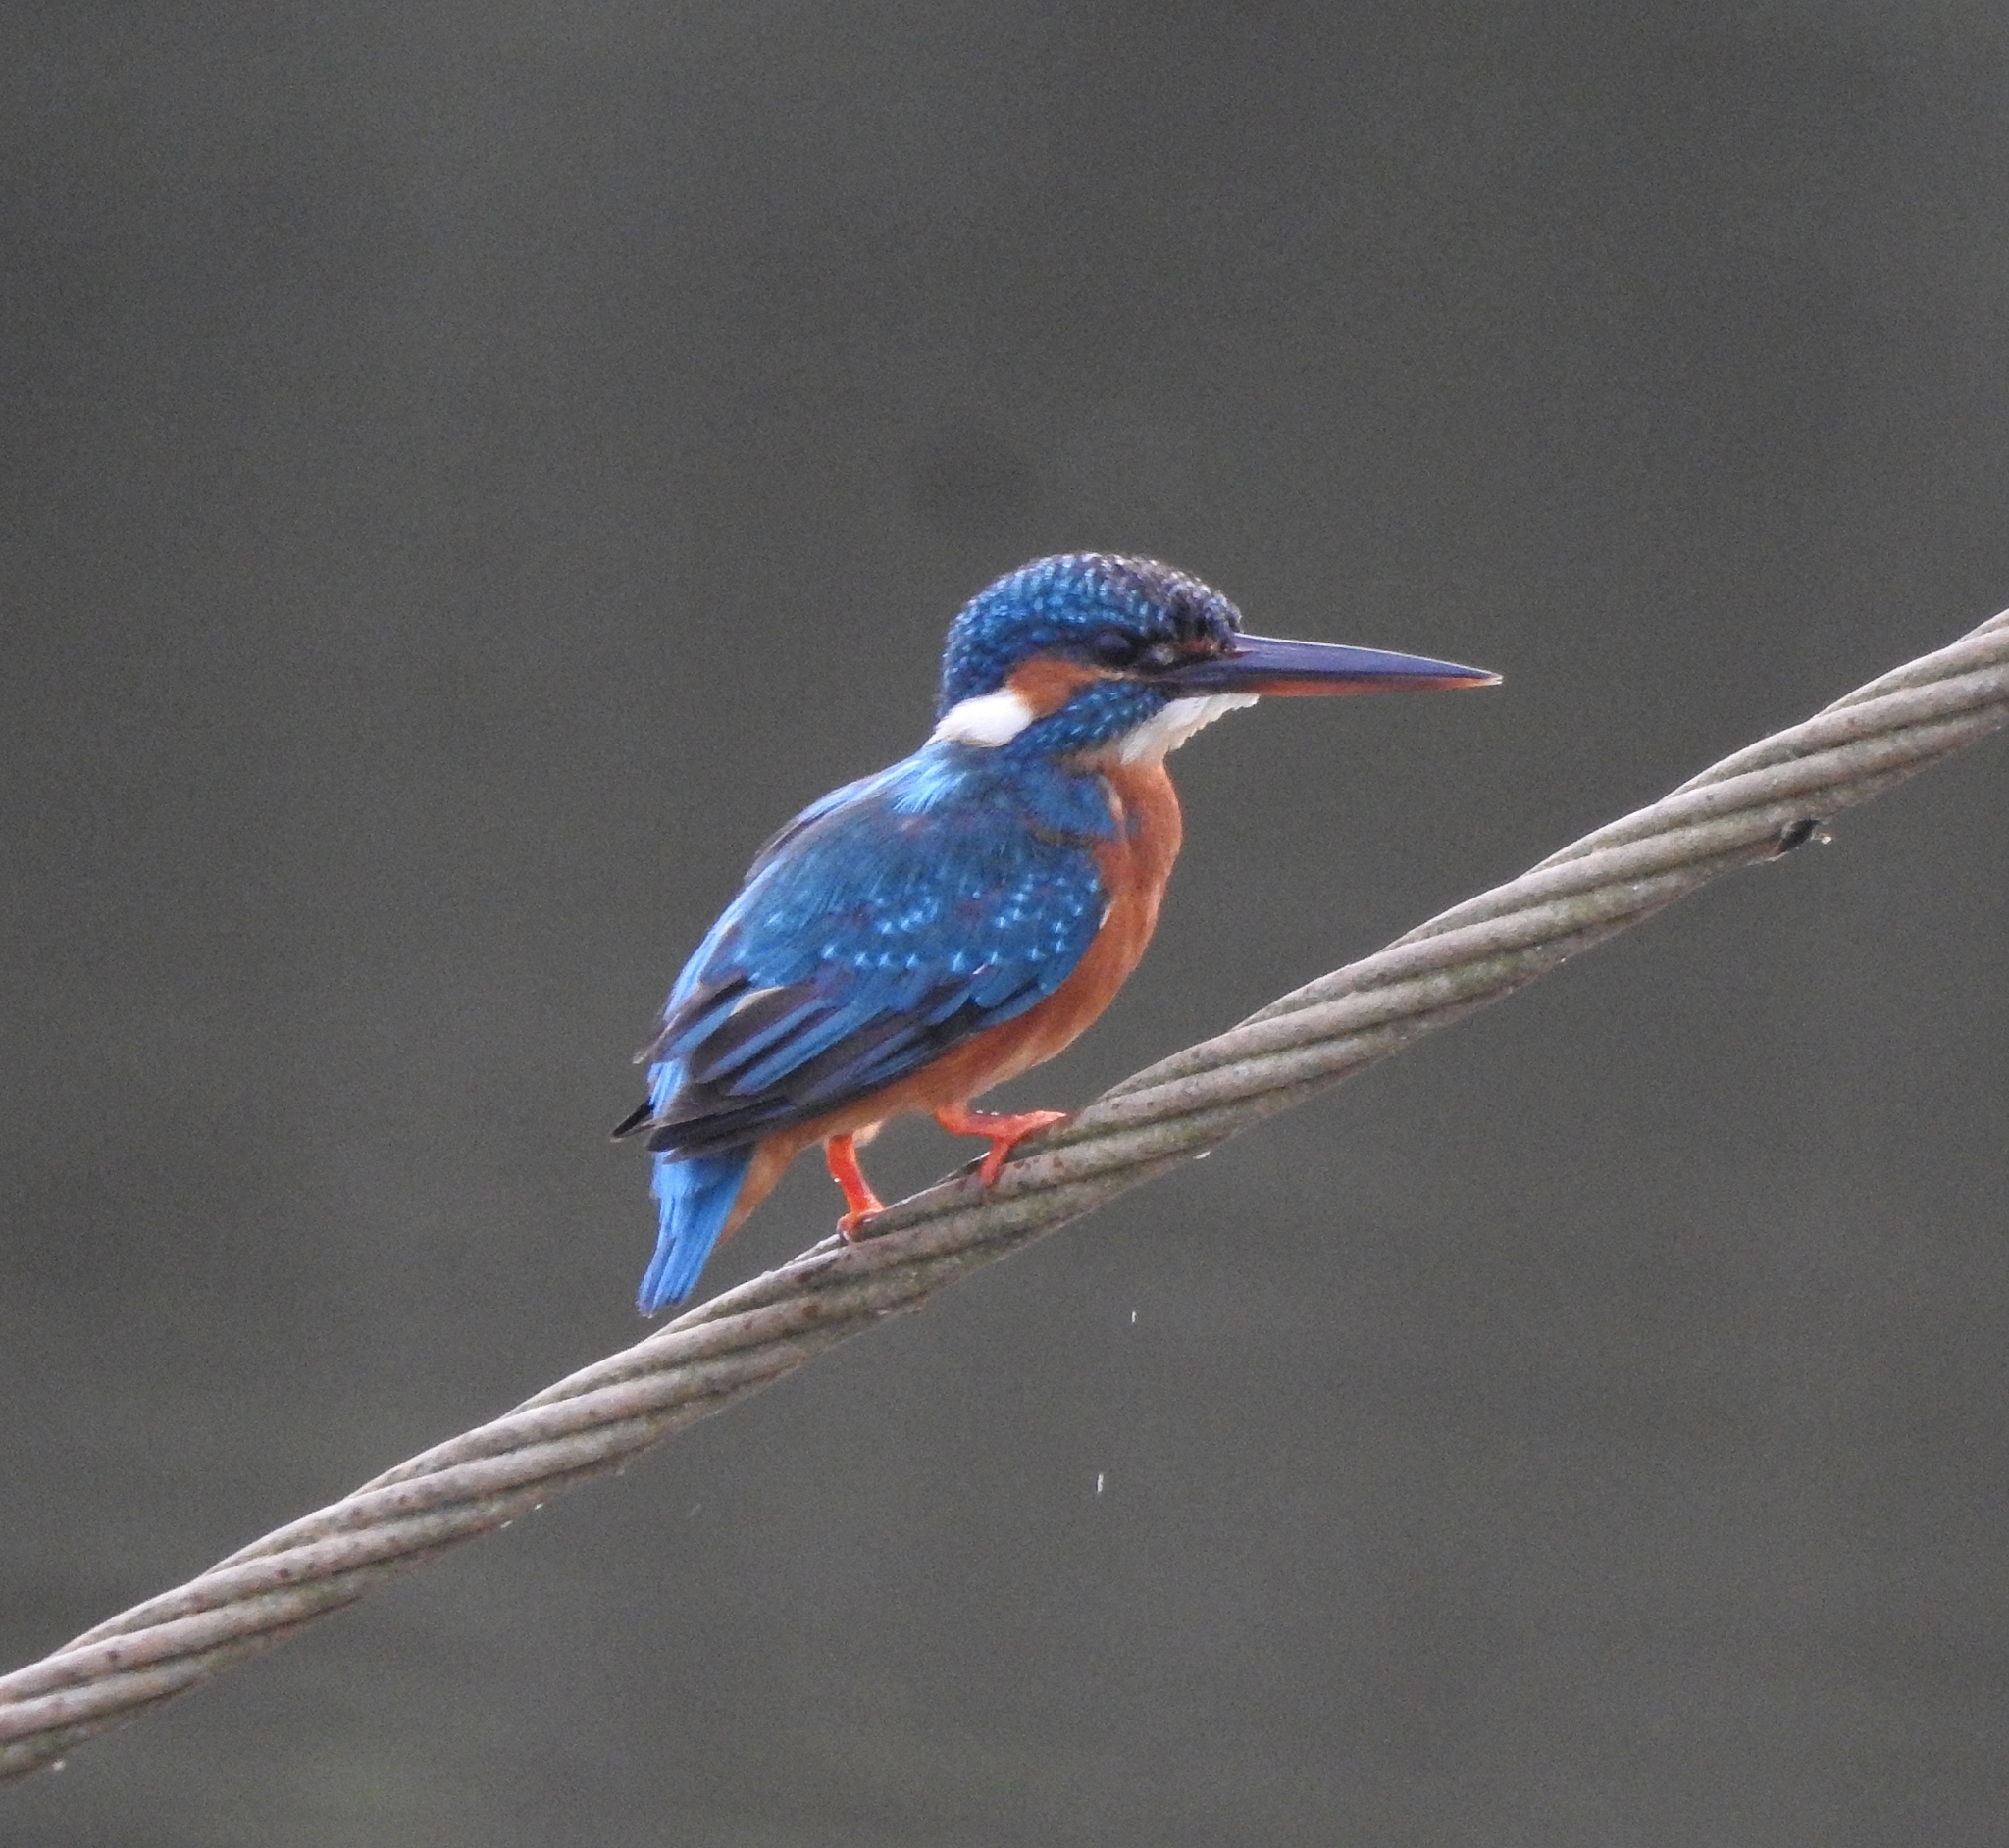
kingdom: Animalia
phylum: Chordata
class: Aves
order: Coraciiformes
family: Alcedinidae
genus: Alcedo
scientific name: Alcedo atthis
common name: Common kingfisher
